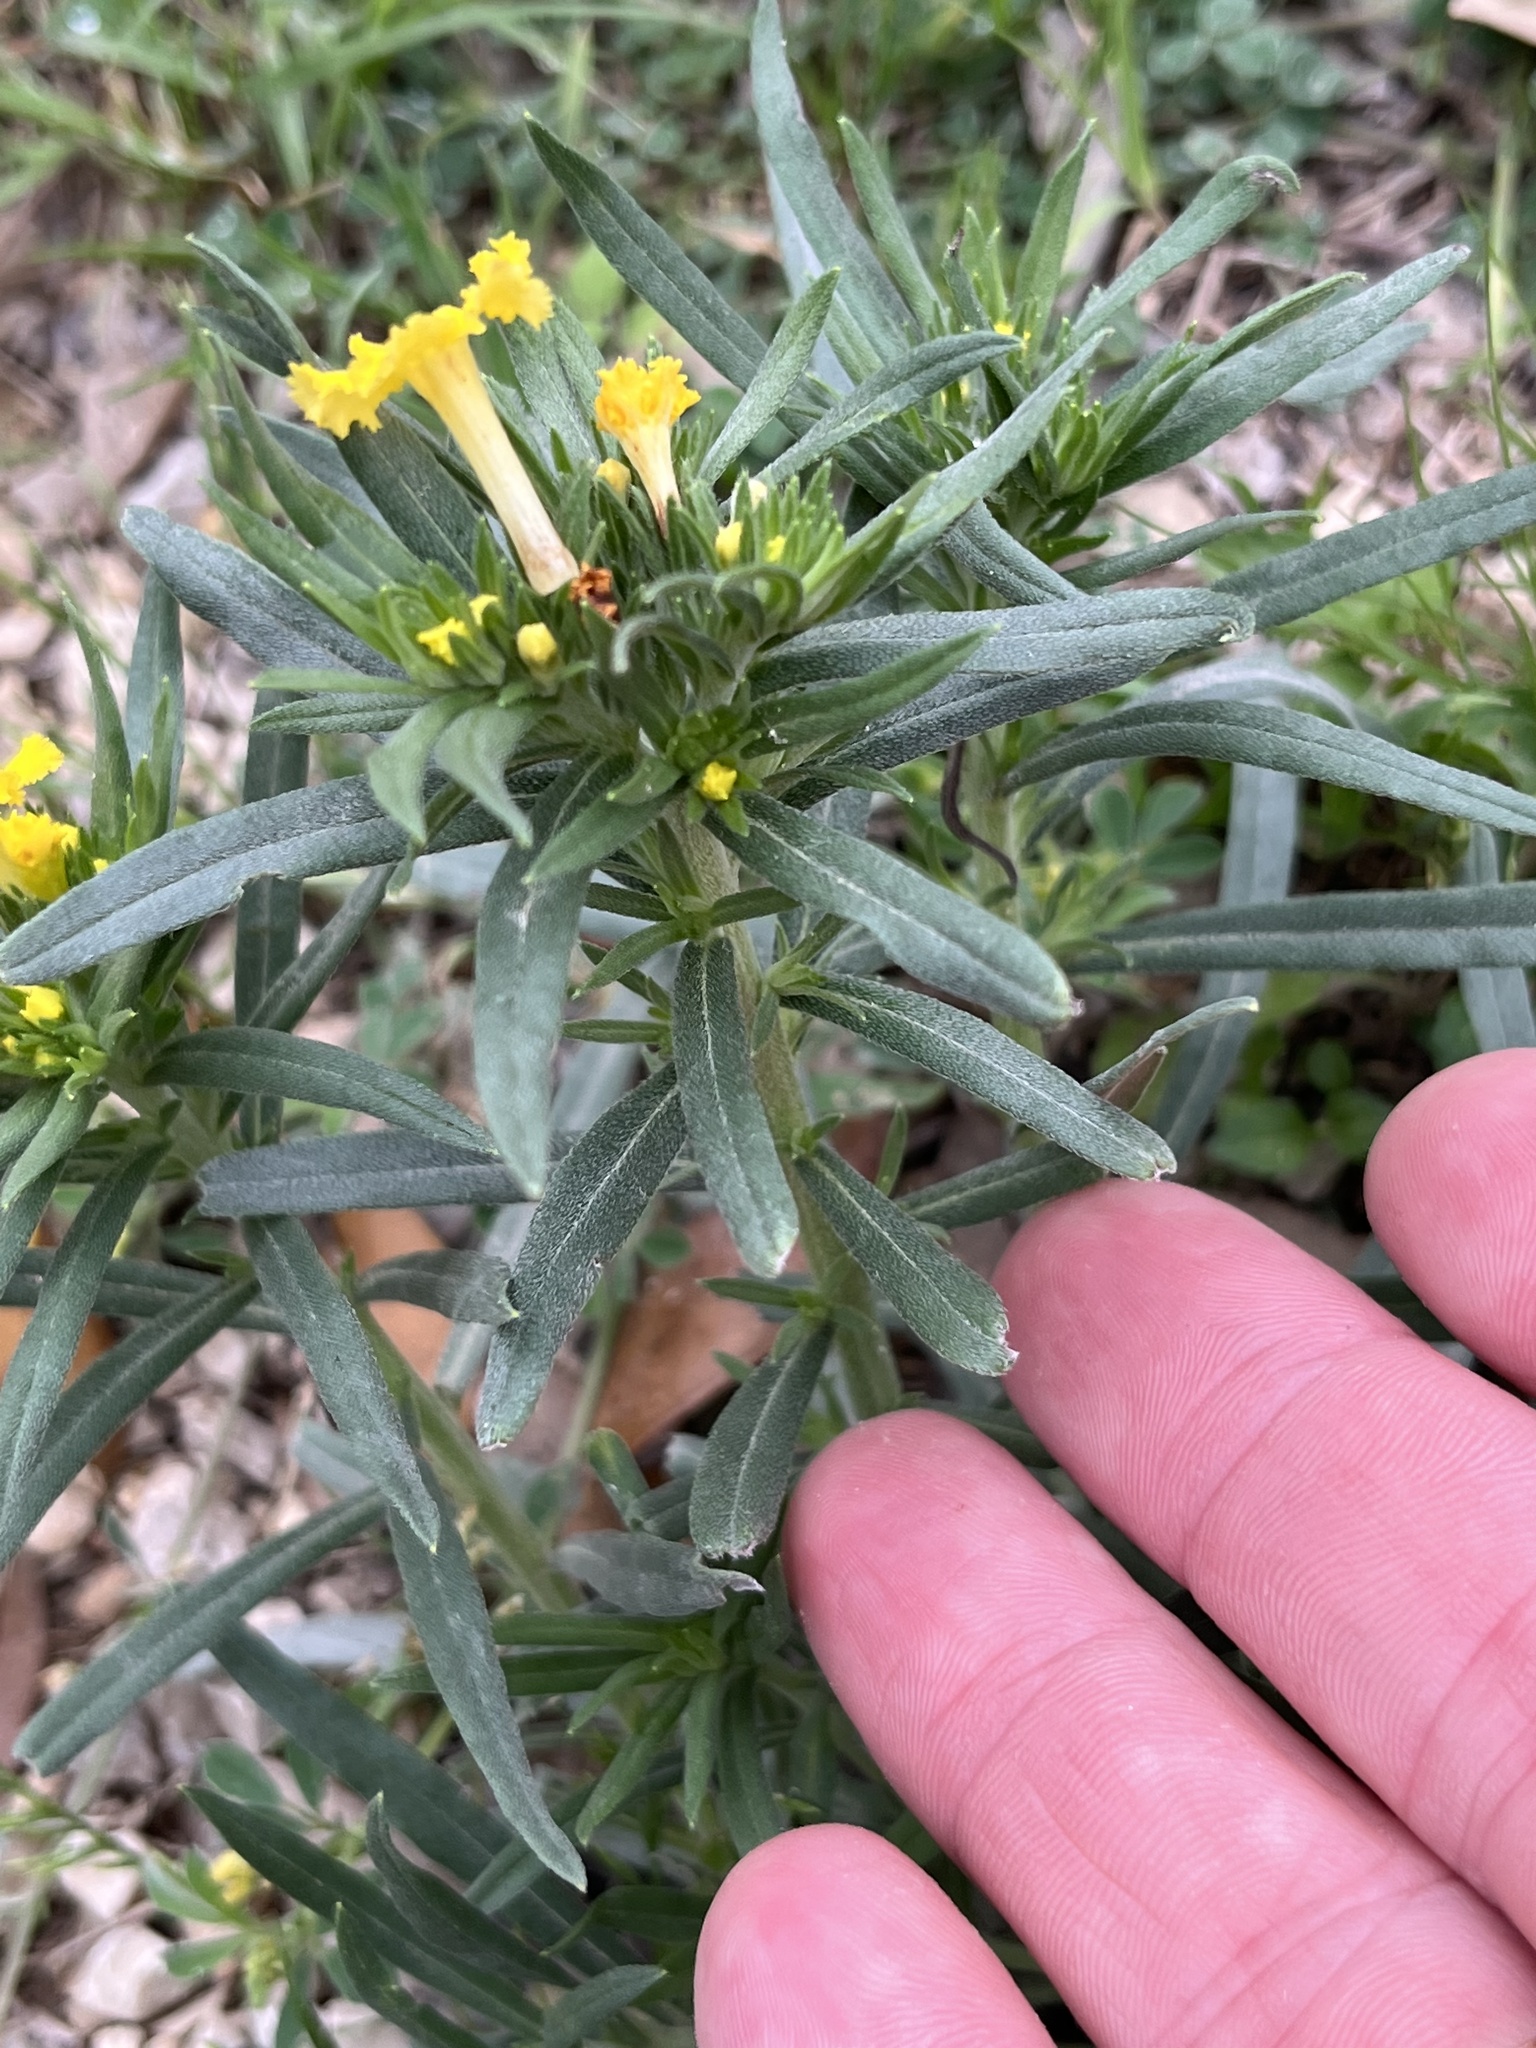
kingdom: Plantae
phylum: Tracheophyta
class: Magnoliopsida
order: Boraginales
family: Boraginaceae
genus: Lithospermum
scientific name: Lithospermum incisum
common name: Fringed gromwell
